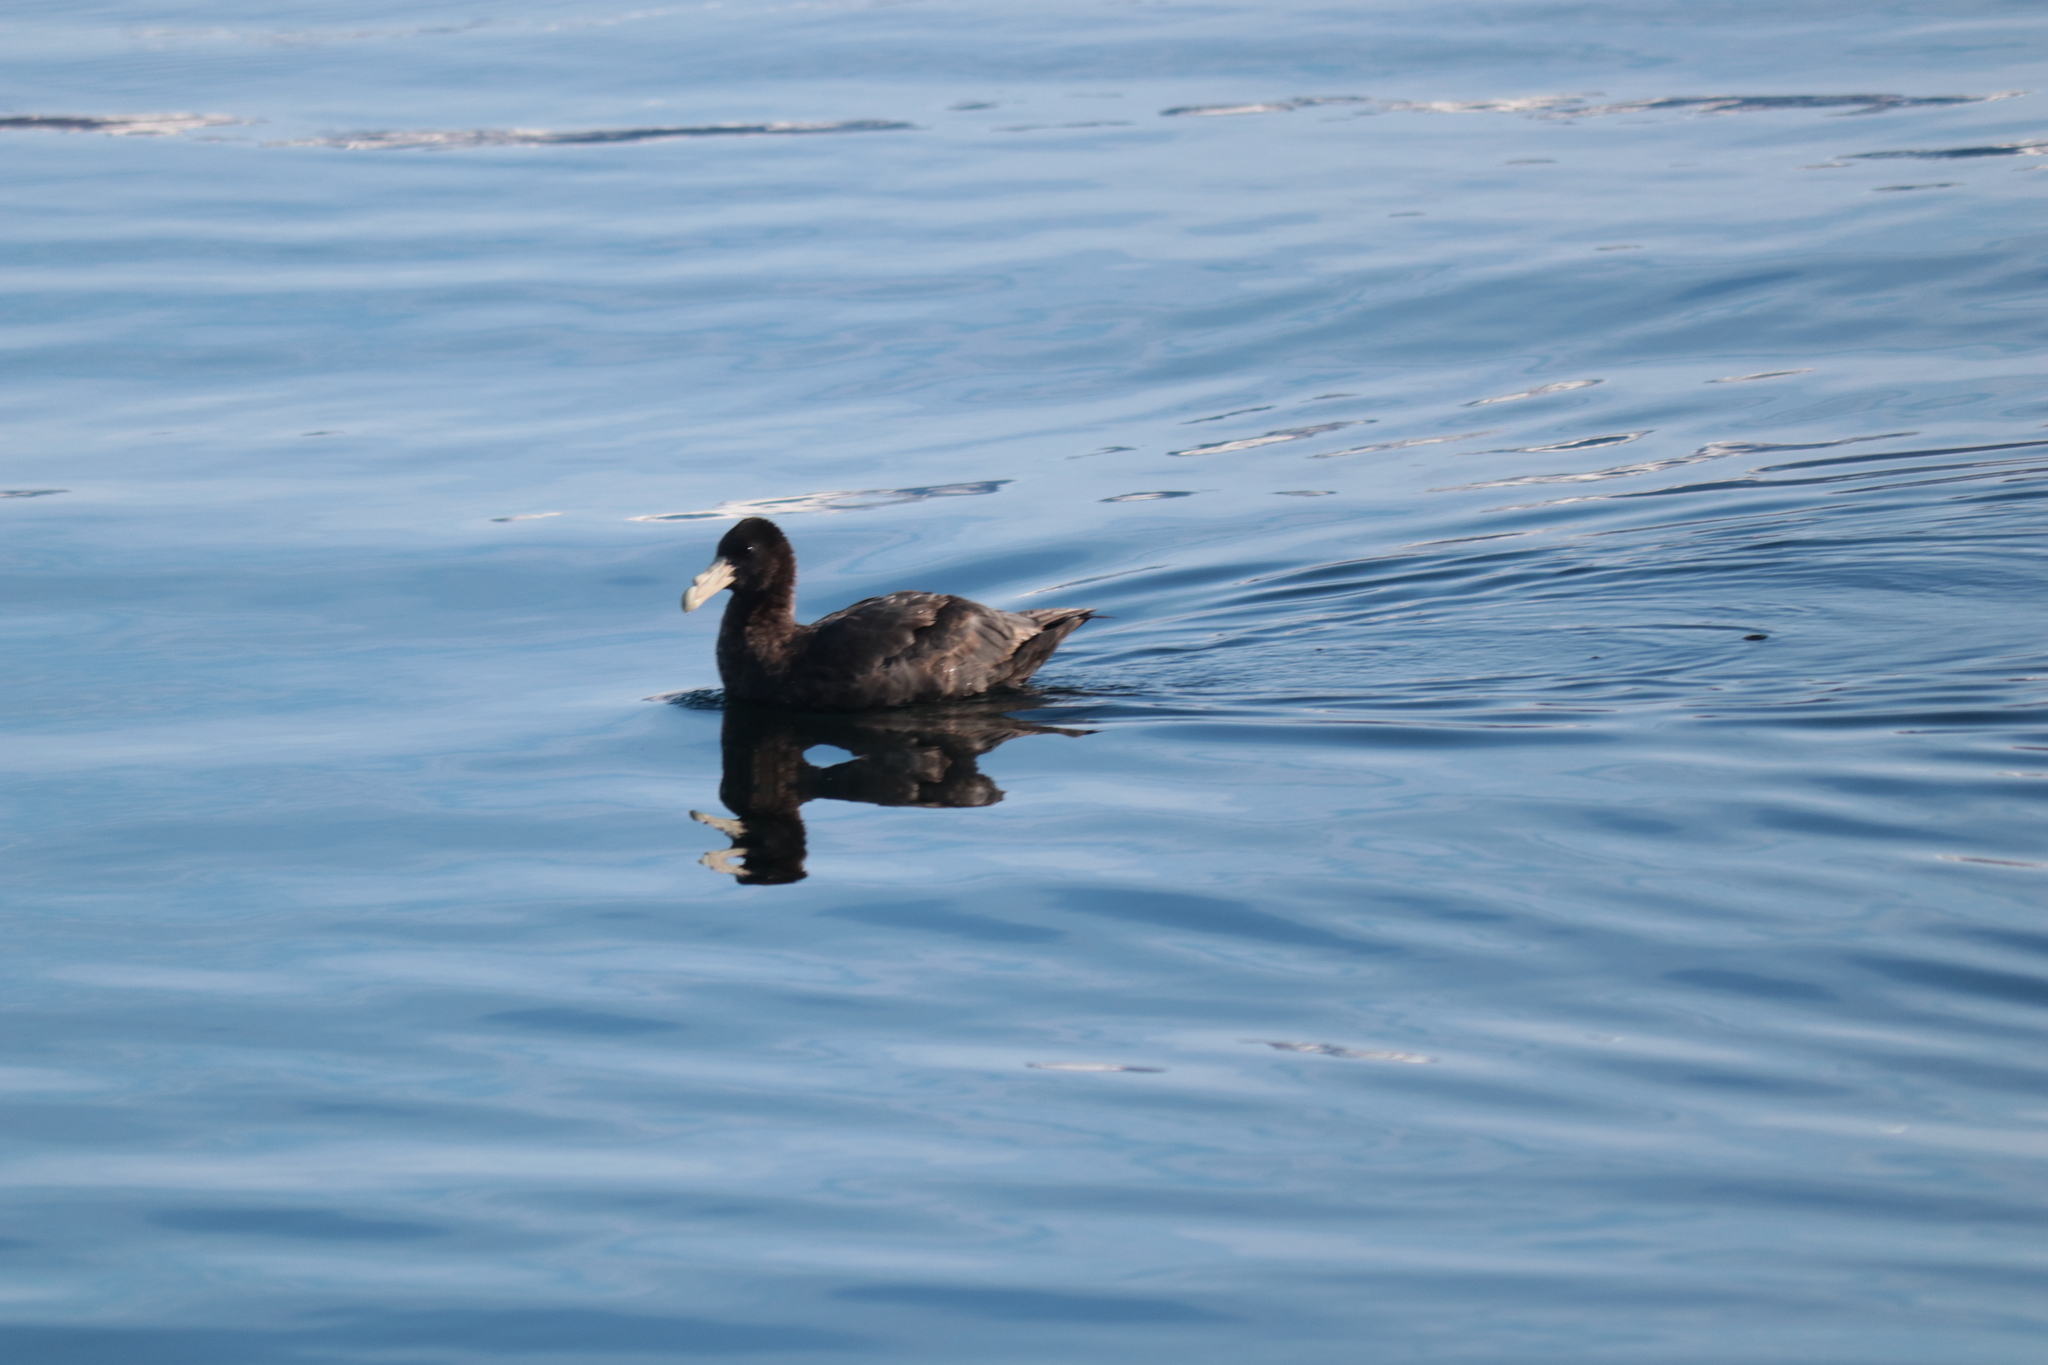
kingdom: Animalia
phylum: Chordata
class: Aves
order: Procellariiformes
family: Procellariidae
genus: Macronectes
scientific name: Macronectes giganteus
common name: Southern giant petrel
